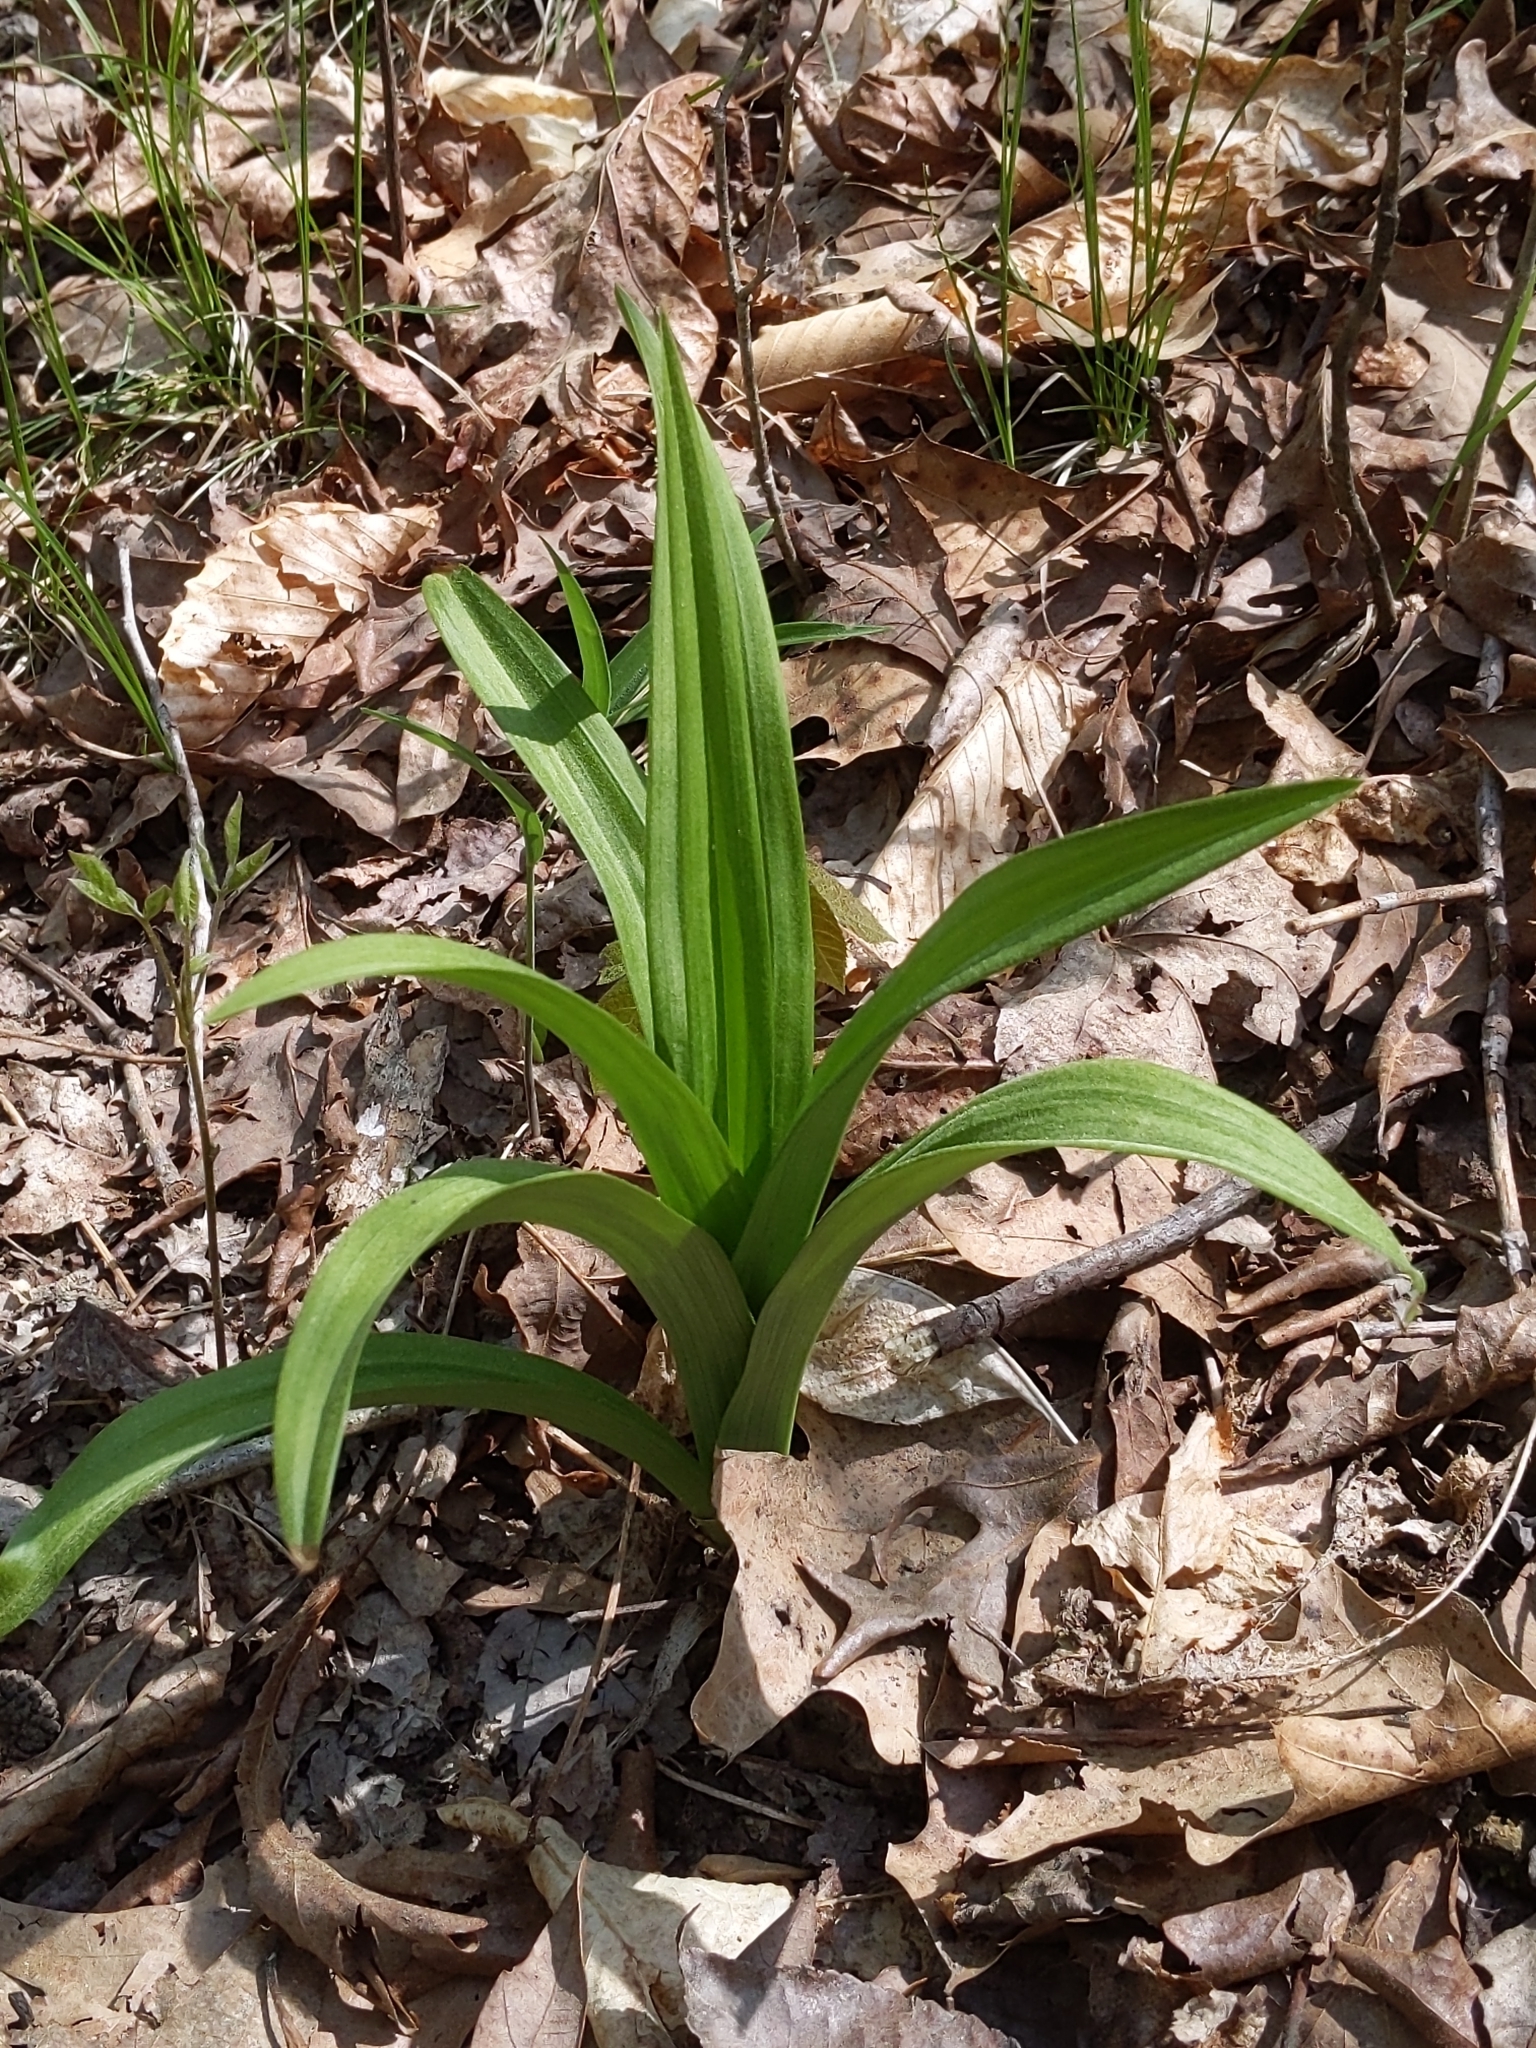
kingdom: Plantae
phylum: Tracheophyta
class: Liliopsida
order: Liliales
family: Melanthiaceae
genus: Veratrum
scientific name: Veratrum hybridum
